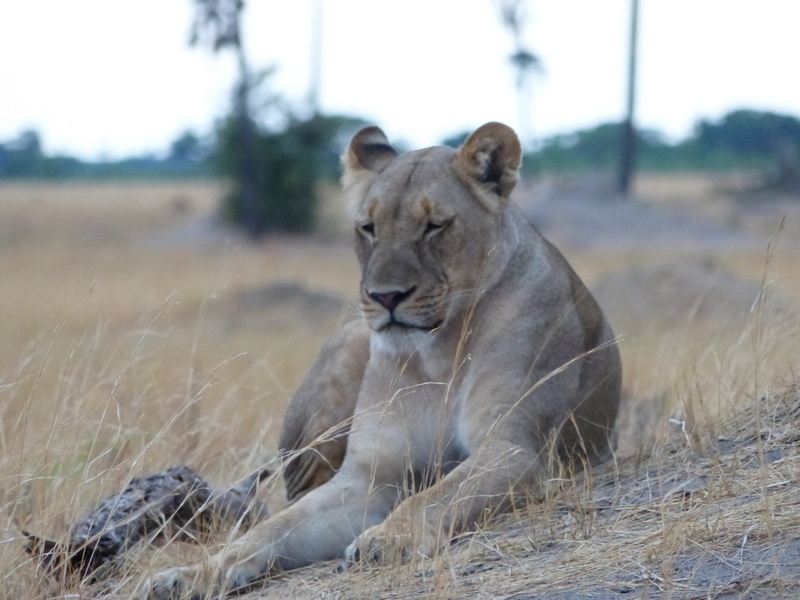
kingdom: Animalia
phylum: Chordata
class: Mammalia
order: Carnivora
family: Felidae
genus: Panthera
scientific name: Panthera leo
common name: Lion
